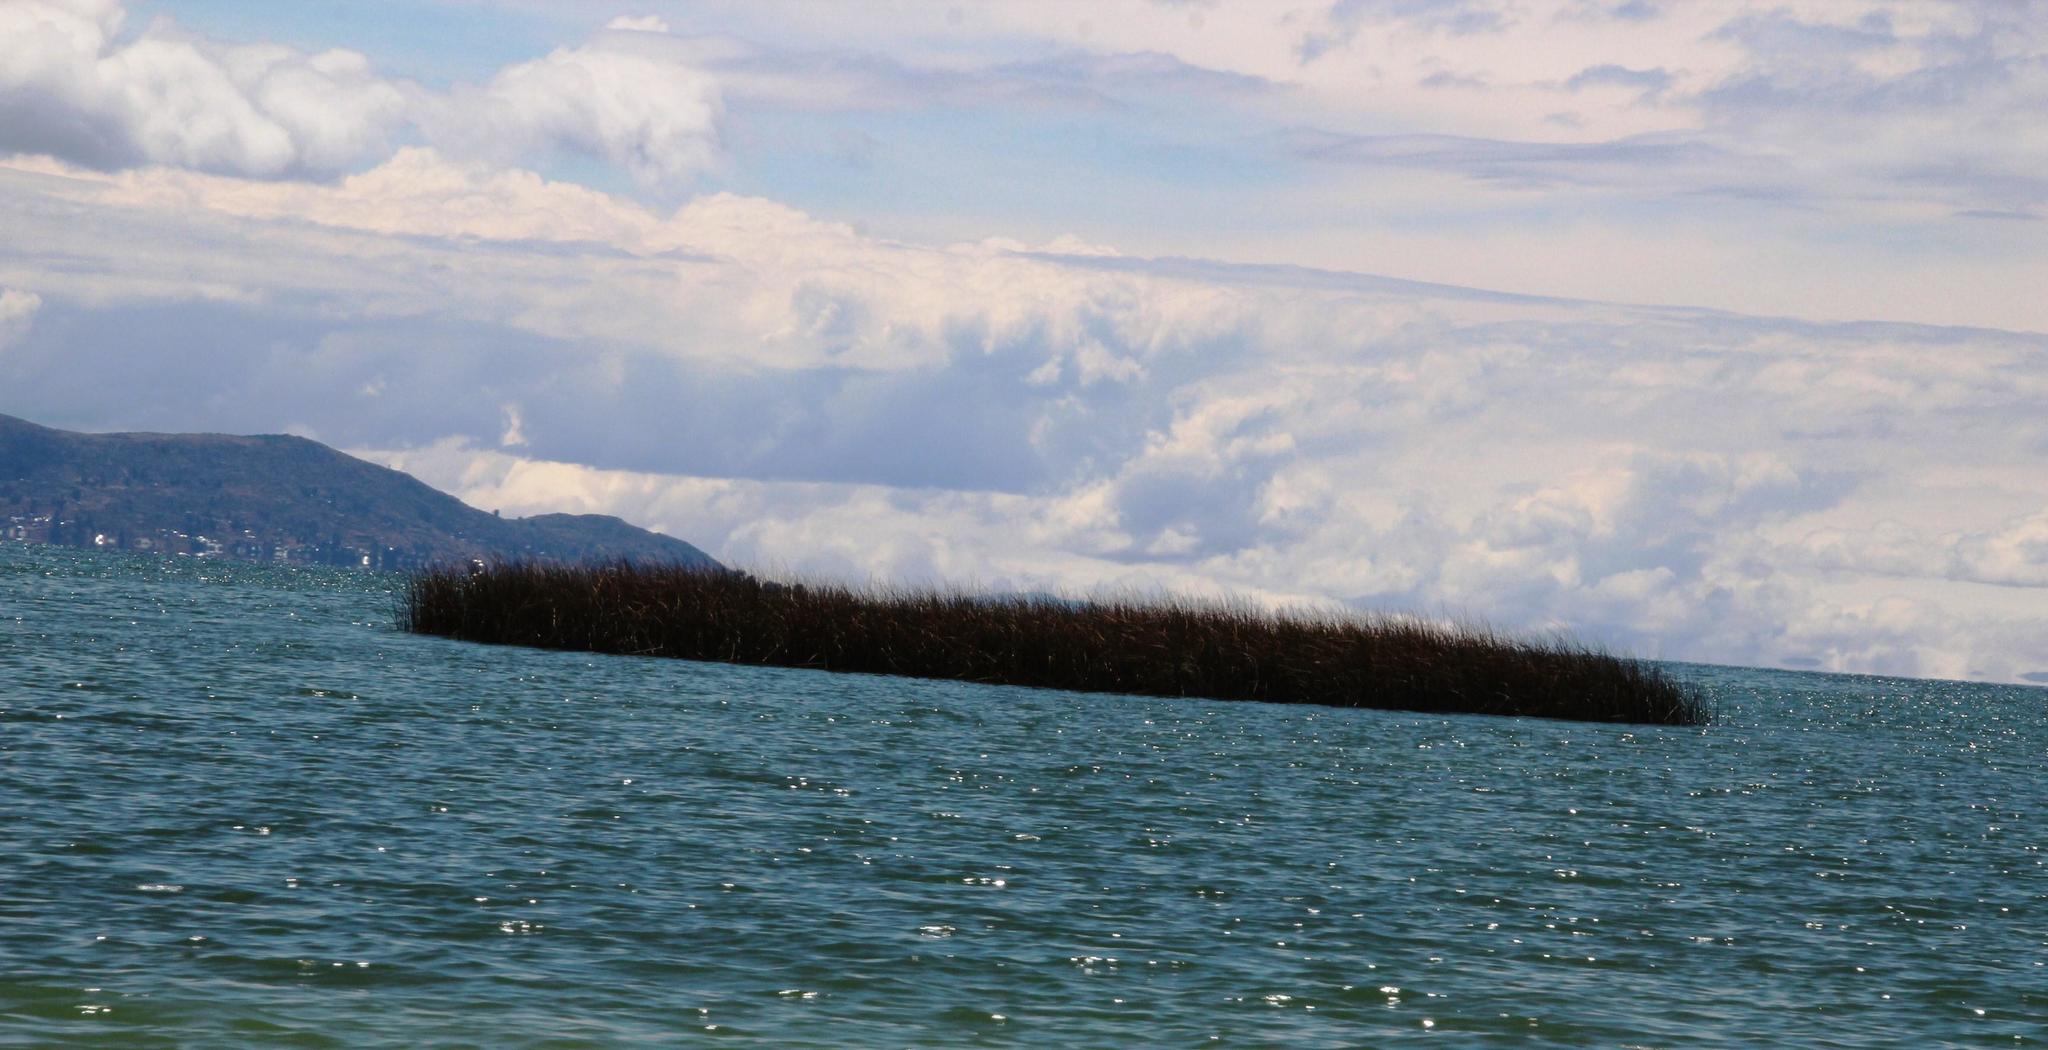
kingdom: Plantae
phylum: Tracheophyta
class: Liliopsida
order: Poales
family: Cyperaceae
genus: Schoenoplectus
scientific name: Schoenoplectus californicus
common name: California bulrush
